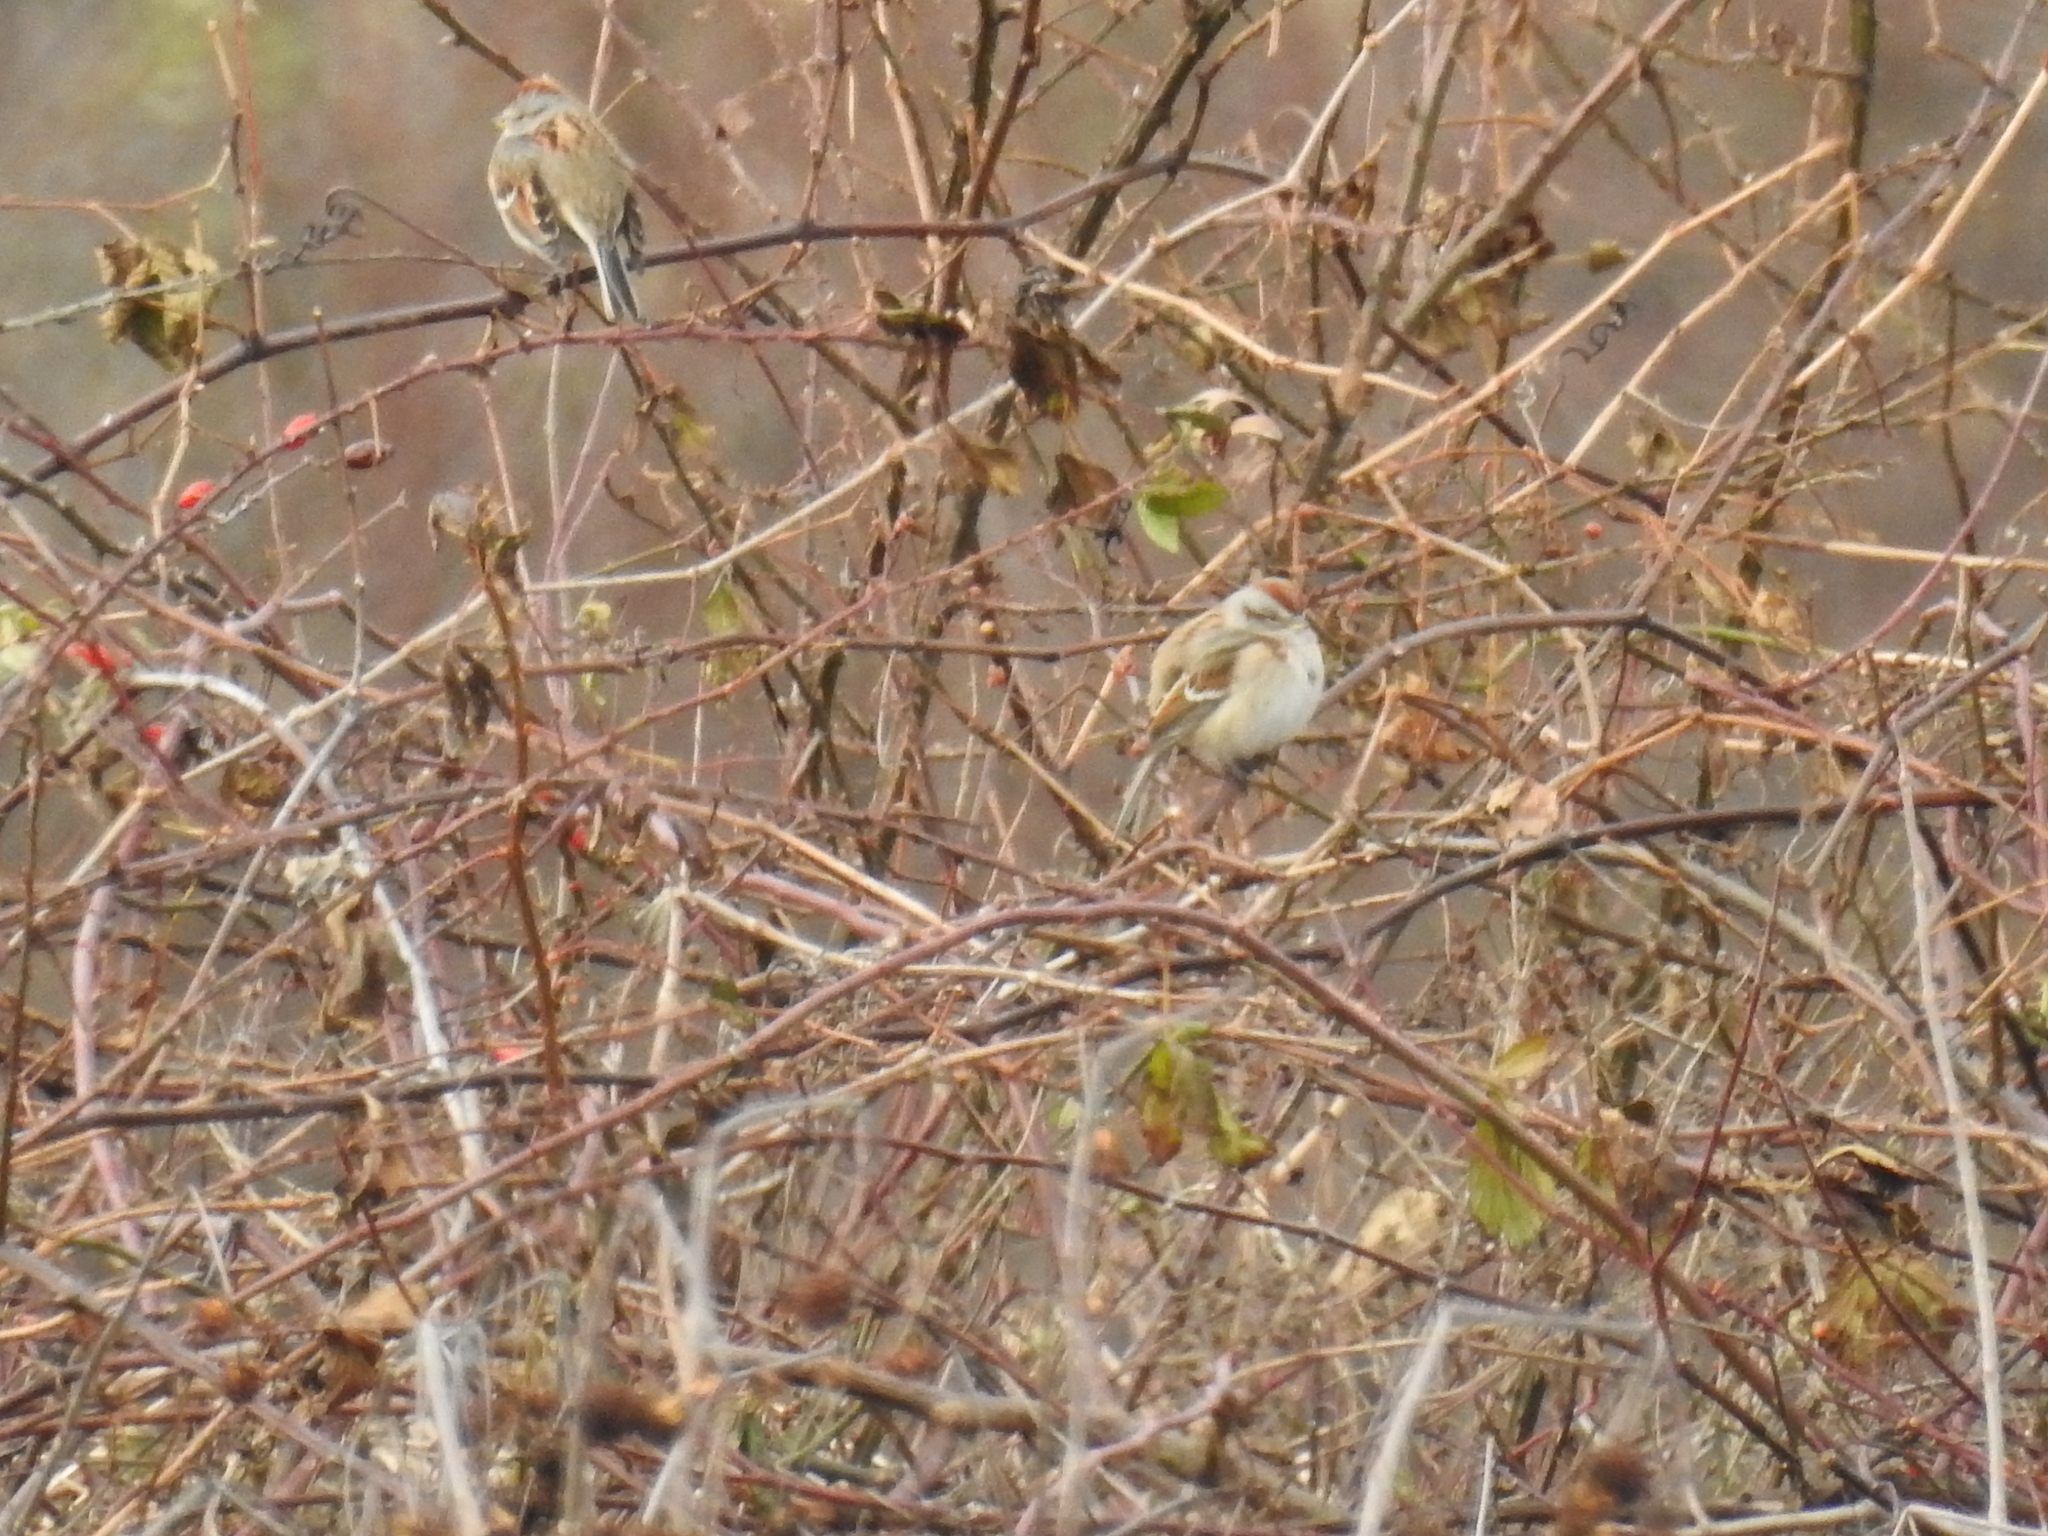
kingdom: Animalia
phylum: Chordata
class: Aves
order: Passeriformes
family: Passerellidae
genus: Spizelloides
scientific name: Spizelloides arborea
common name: American tree sparrow
